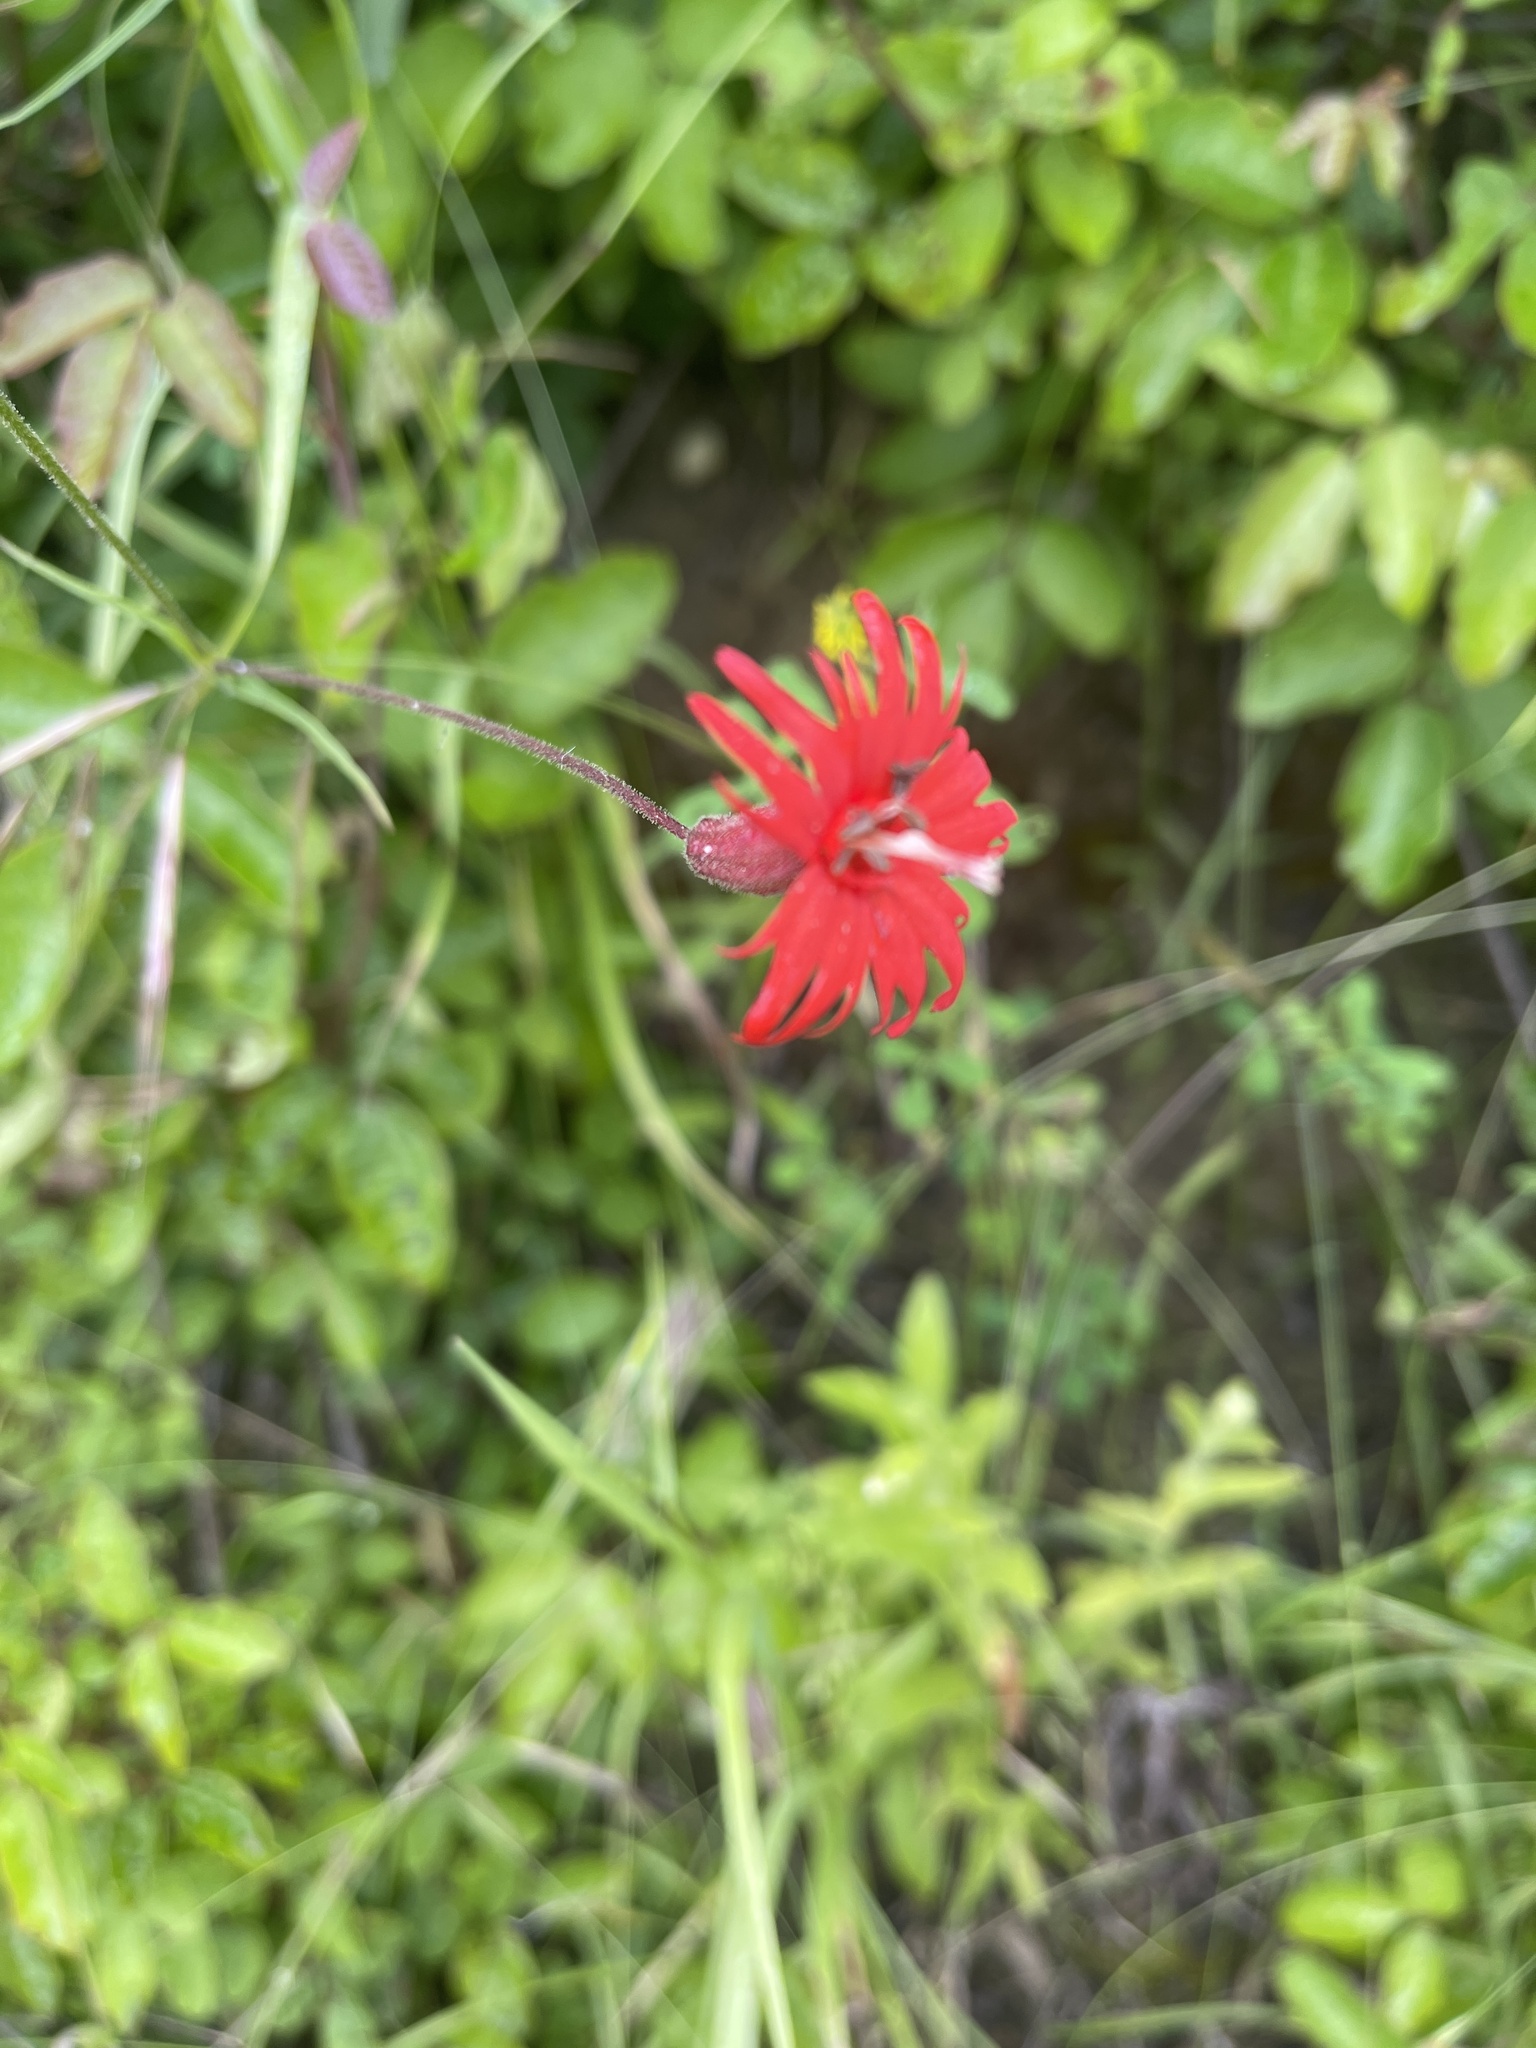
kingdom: Plantae
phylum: Tracheophyta
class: Magnoliopsida
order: Caryophyllales
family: Caryophyllaceae
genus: Silene
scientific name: Silene laciniata
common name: Indian-pink
